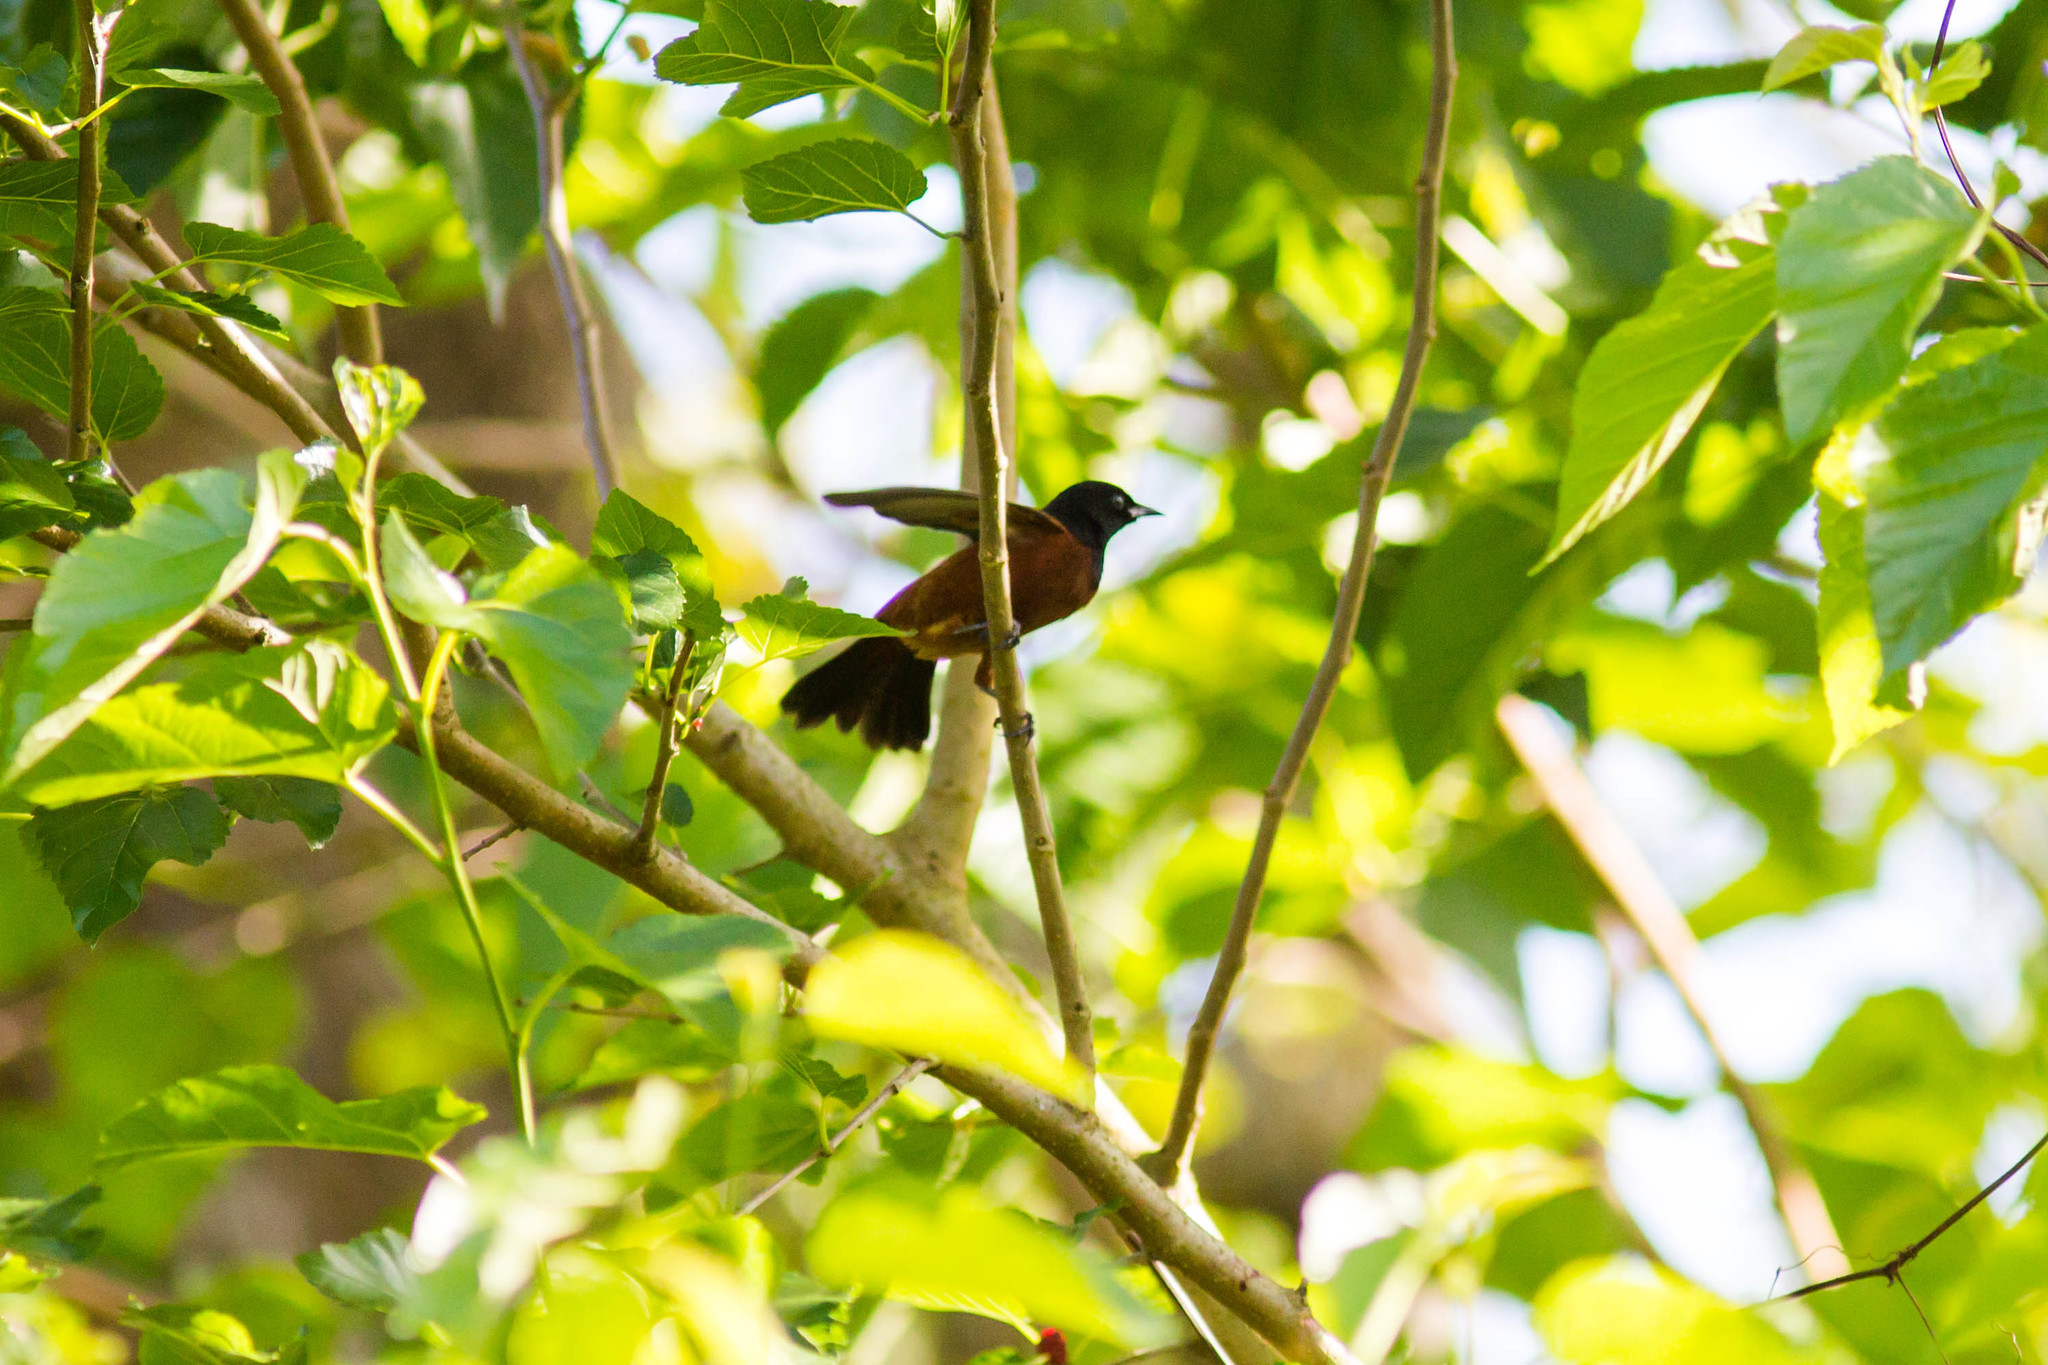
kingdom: Animalia
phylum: Chordata
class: Aves
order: Passeriformes
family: Icteridae
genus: Icterus
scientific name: Icterus spurius
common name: Orchard oriole
